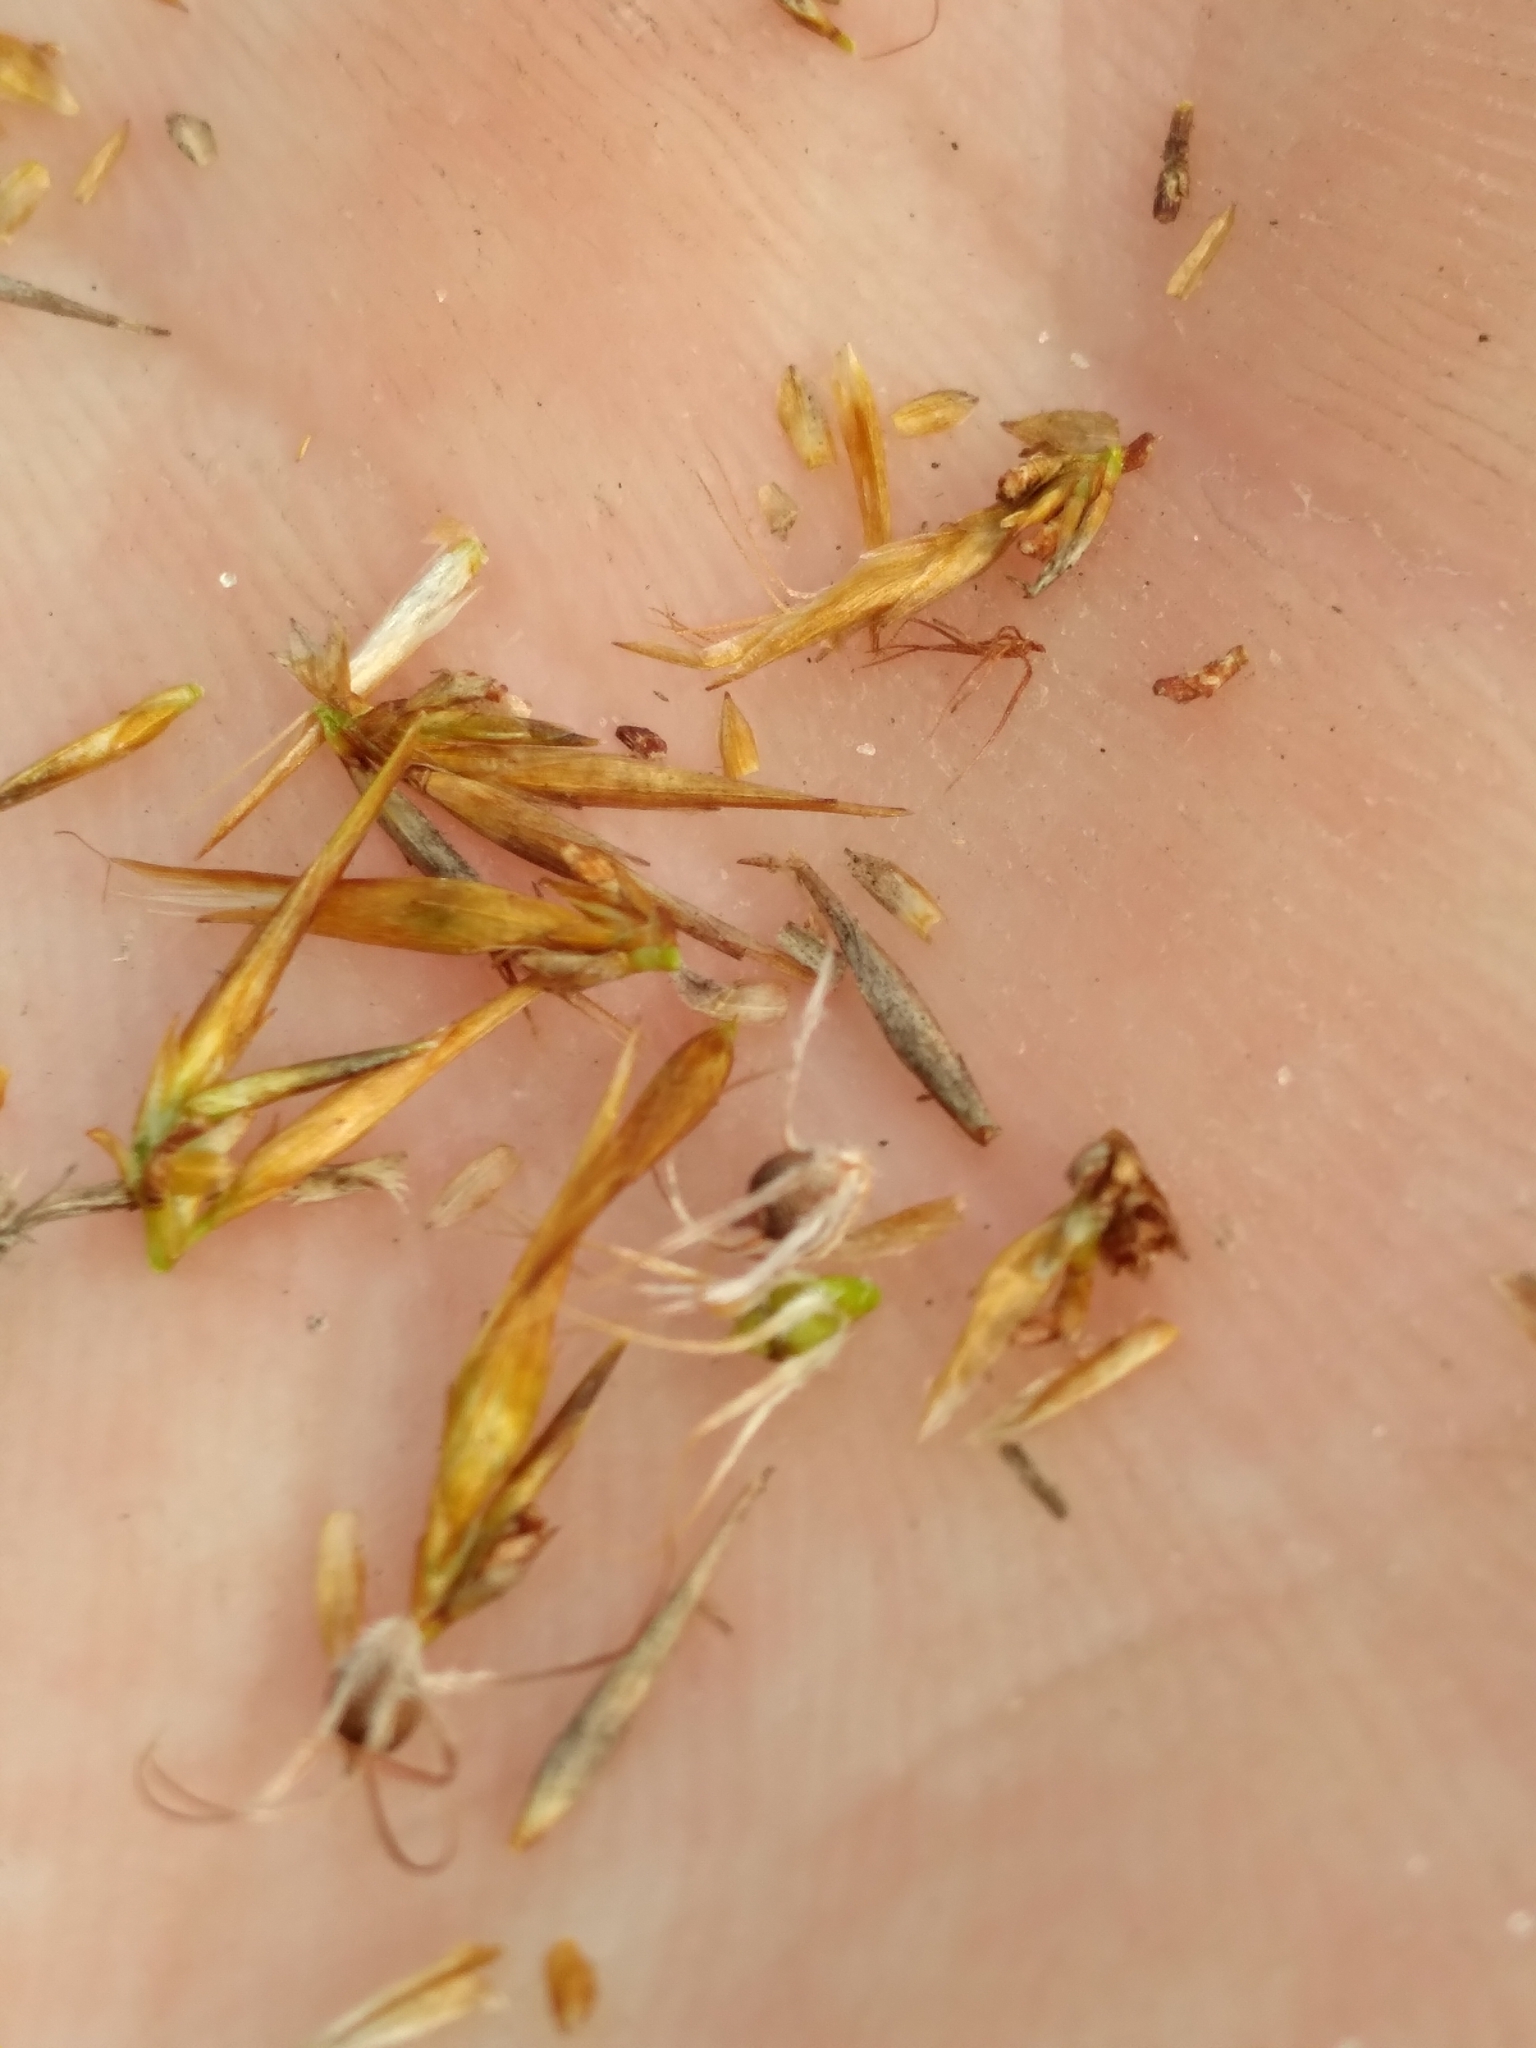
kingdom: Plantae
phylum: Tracheophyta
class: Liliopsida
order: Poales
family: Cyperaceae
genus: Rhynchospora
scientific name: Rhynchospora megaplumosa
